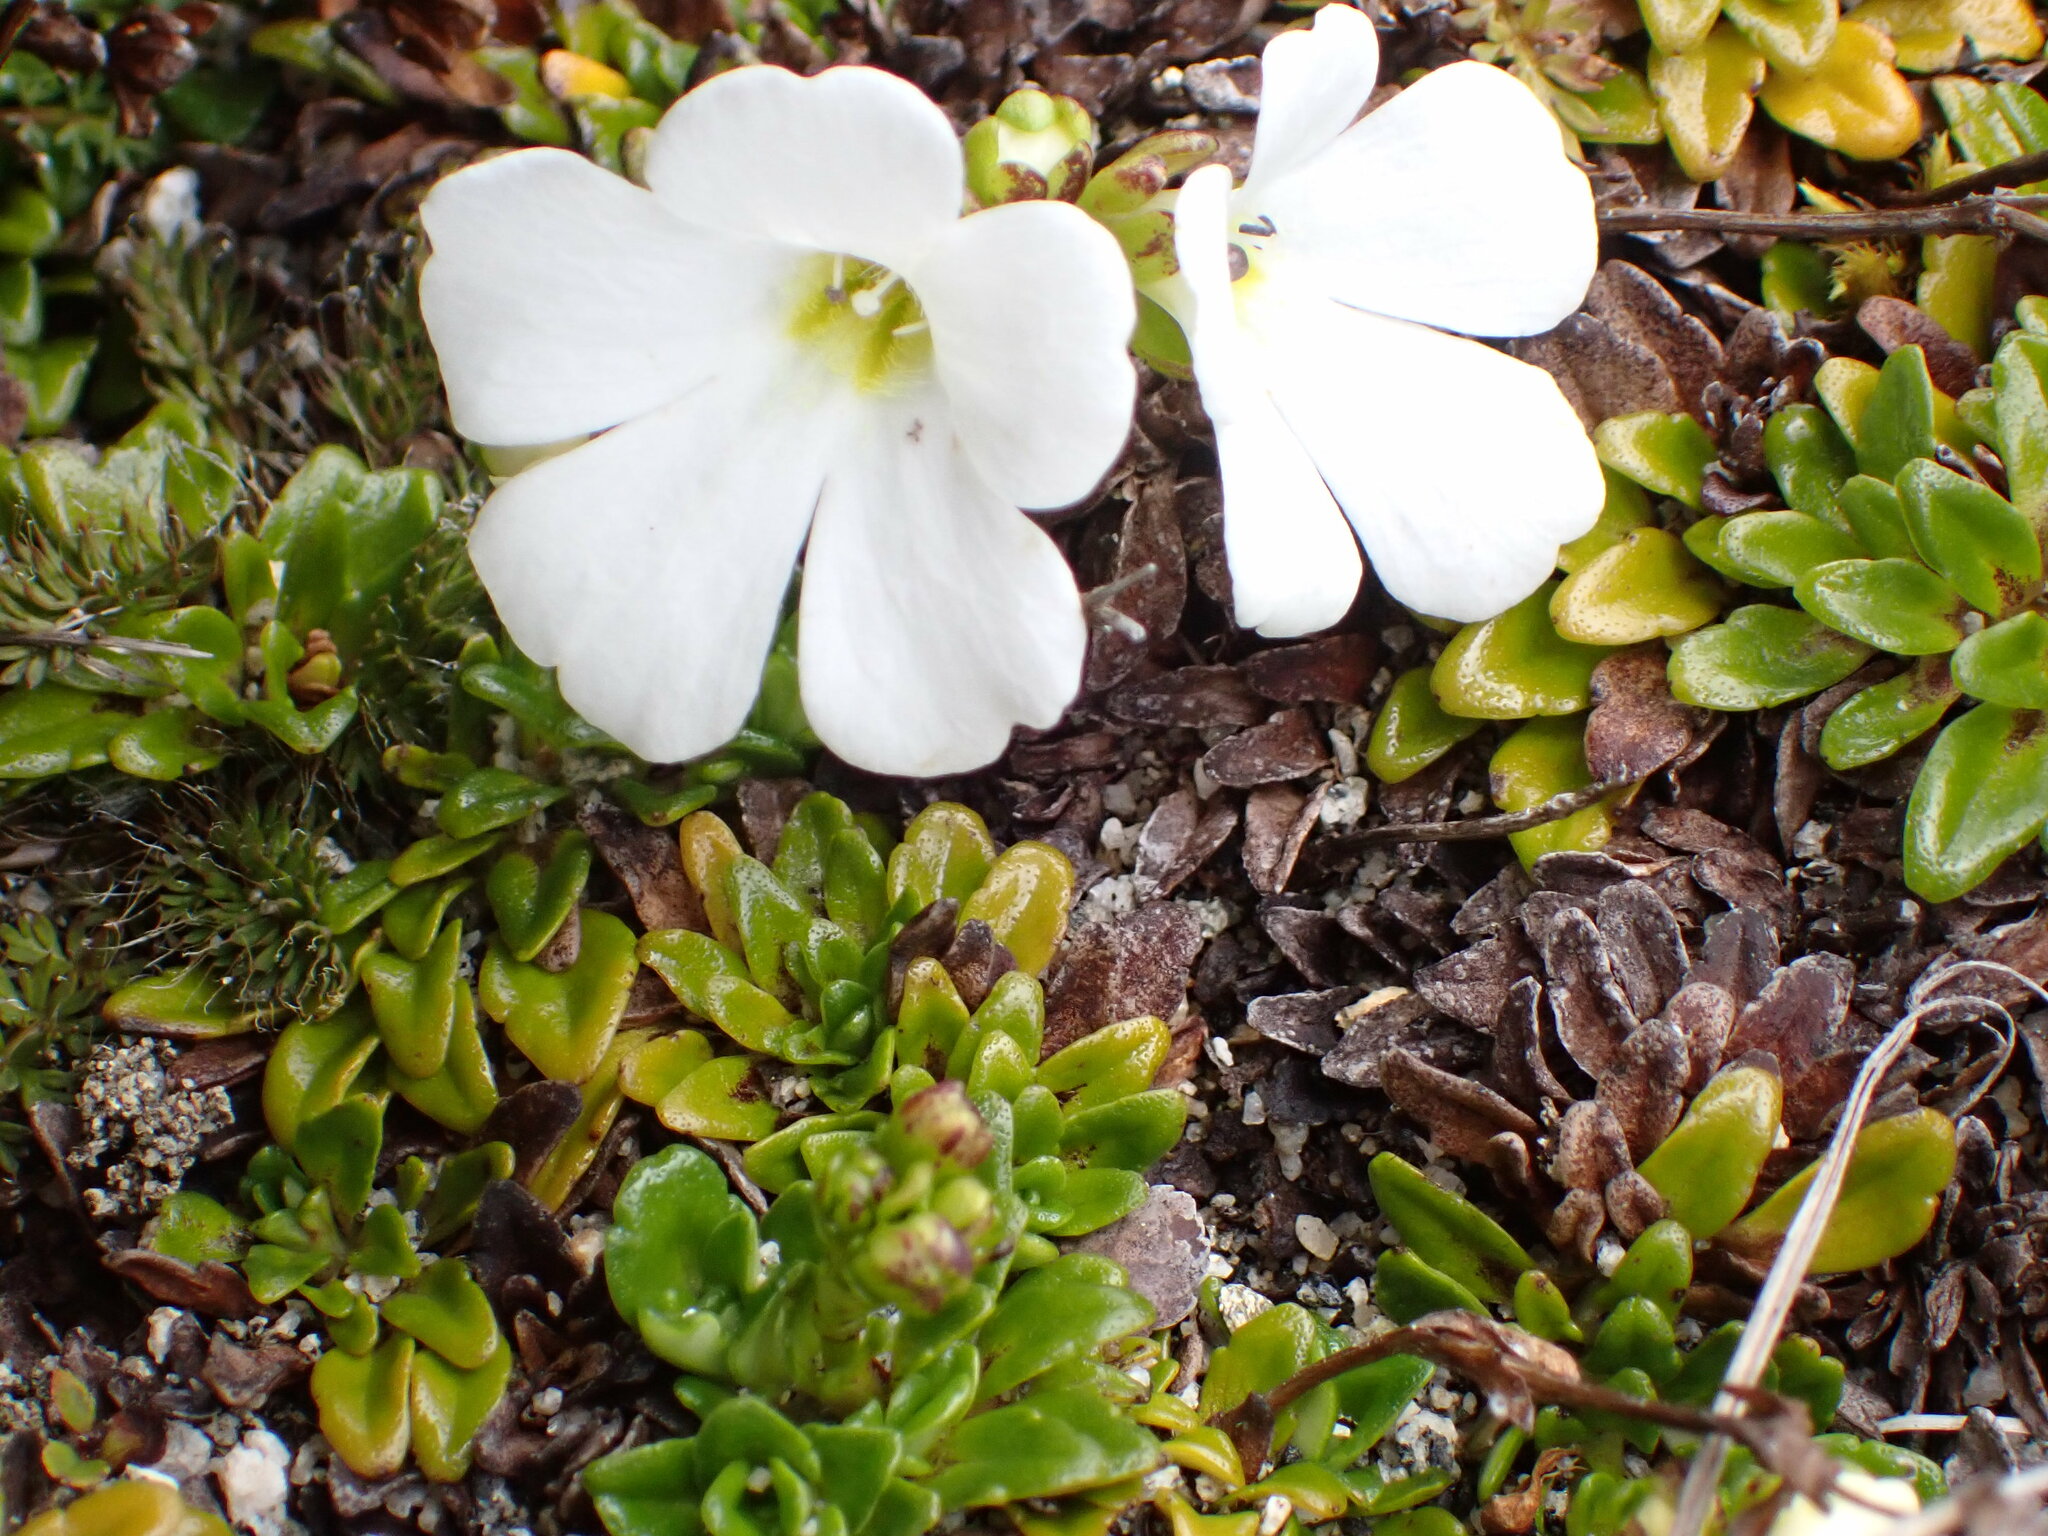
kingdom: Plantae
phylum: Tracheophyta
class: Magnoliopsida
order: Lamiales
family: Plantaginaceae
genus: Ourisia
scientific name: Ourisia caespitosa
